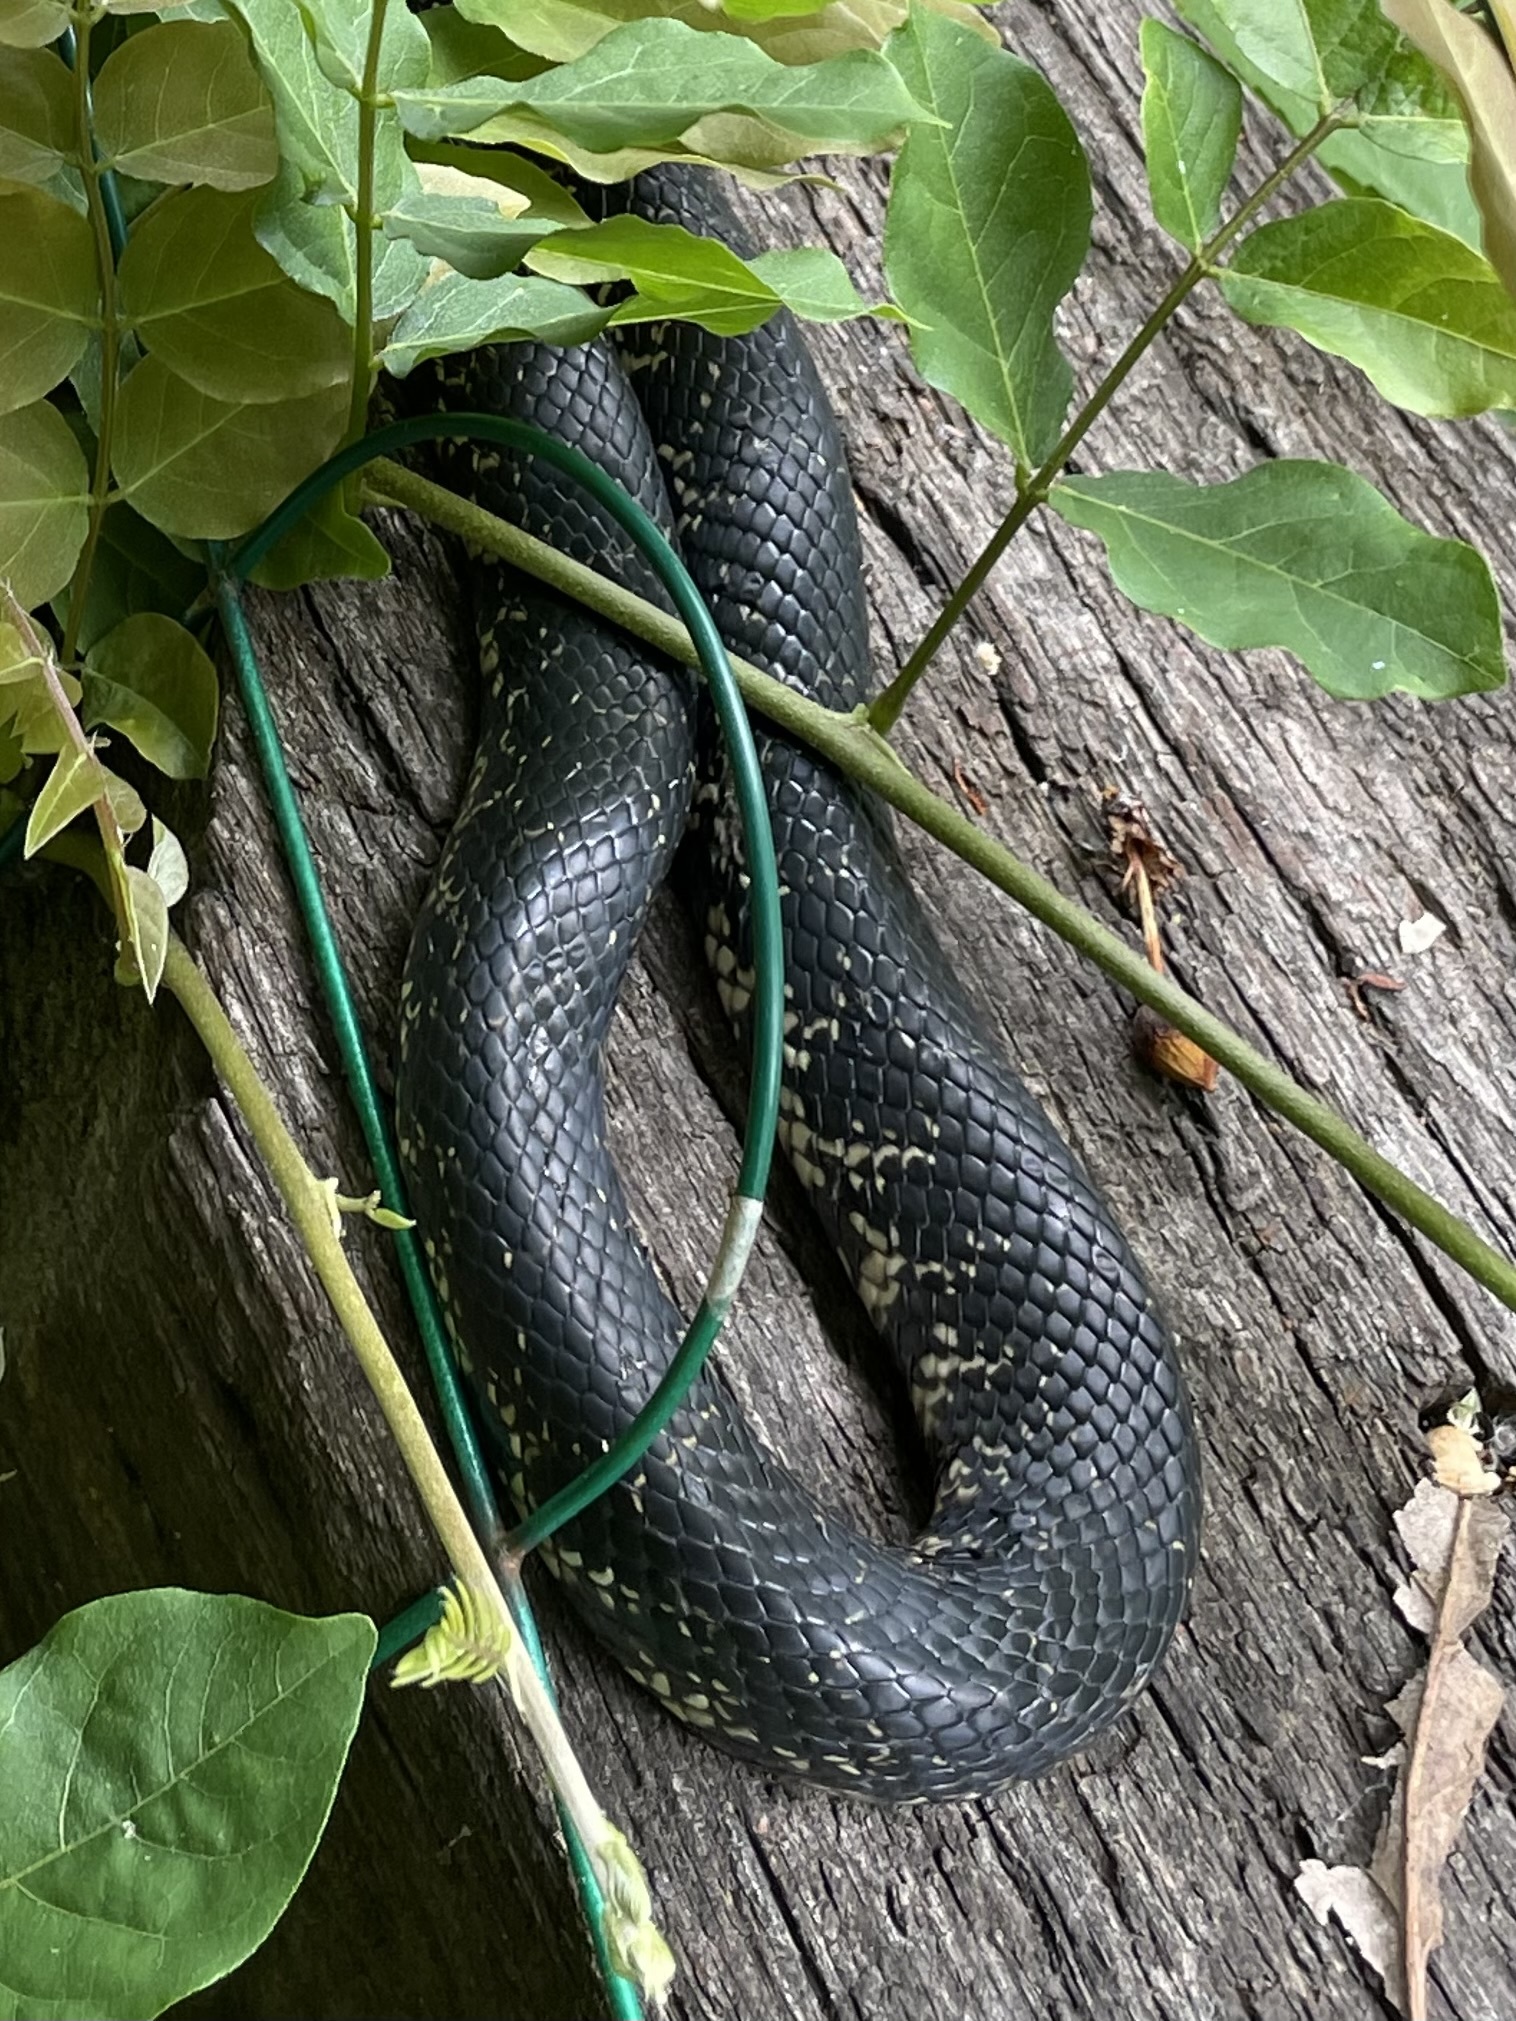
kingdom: Animalia
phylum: Chordata
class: Squamata
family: Colubridae
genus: Lampropeltis
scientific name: Lampropeltis nigra
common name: Black kingsnake
